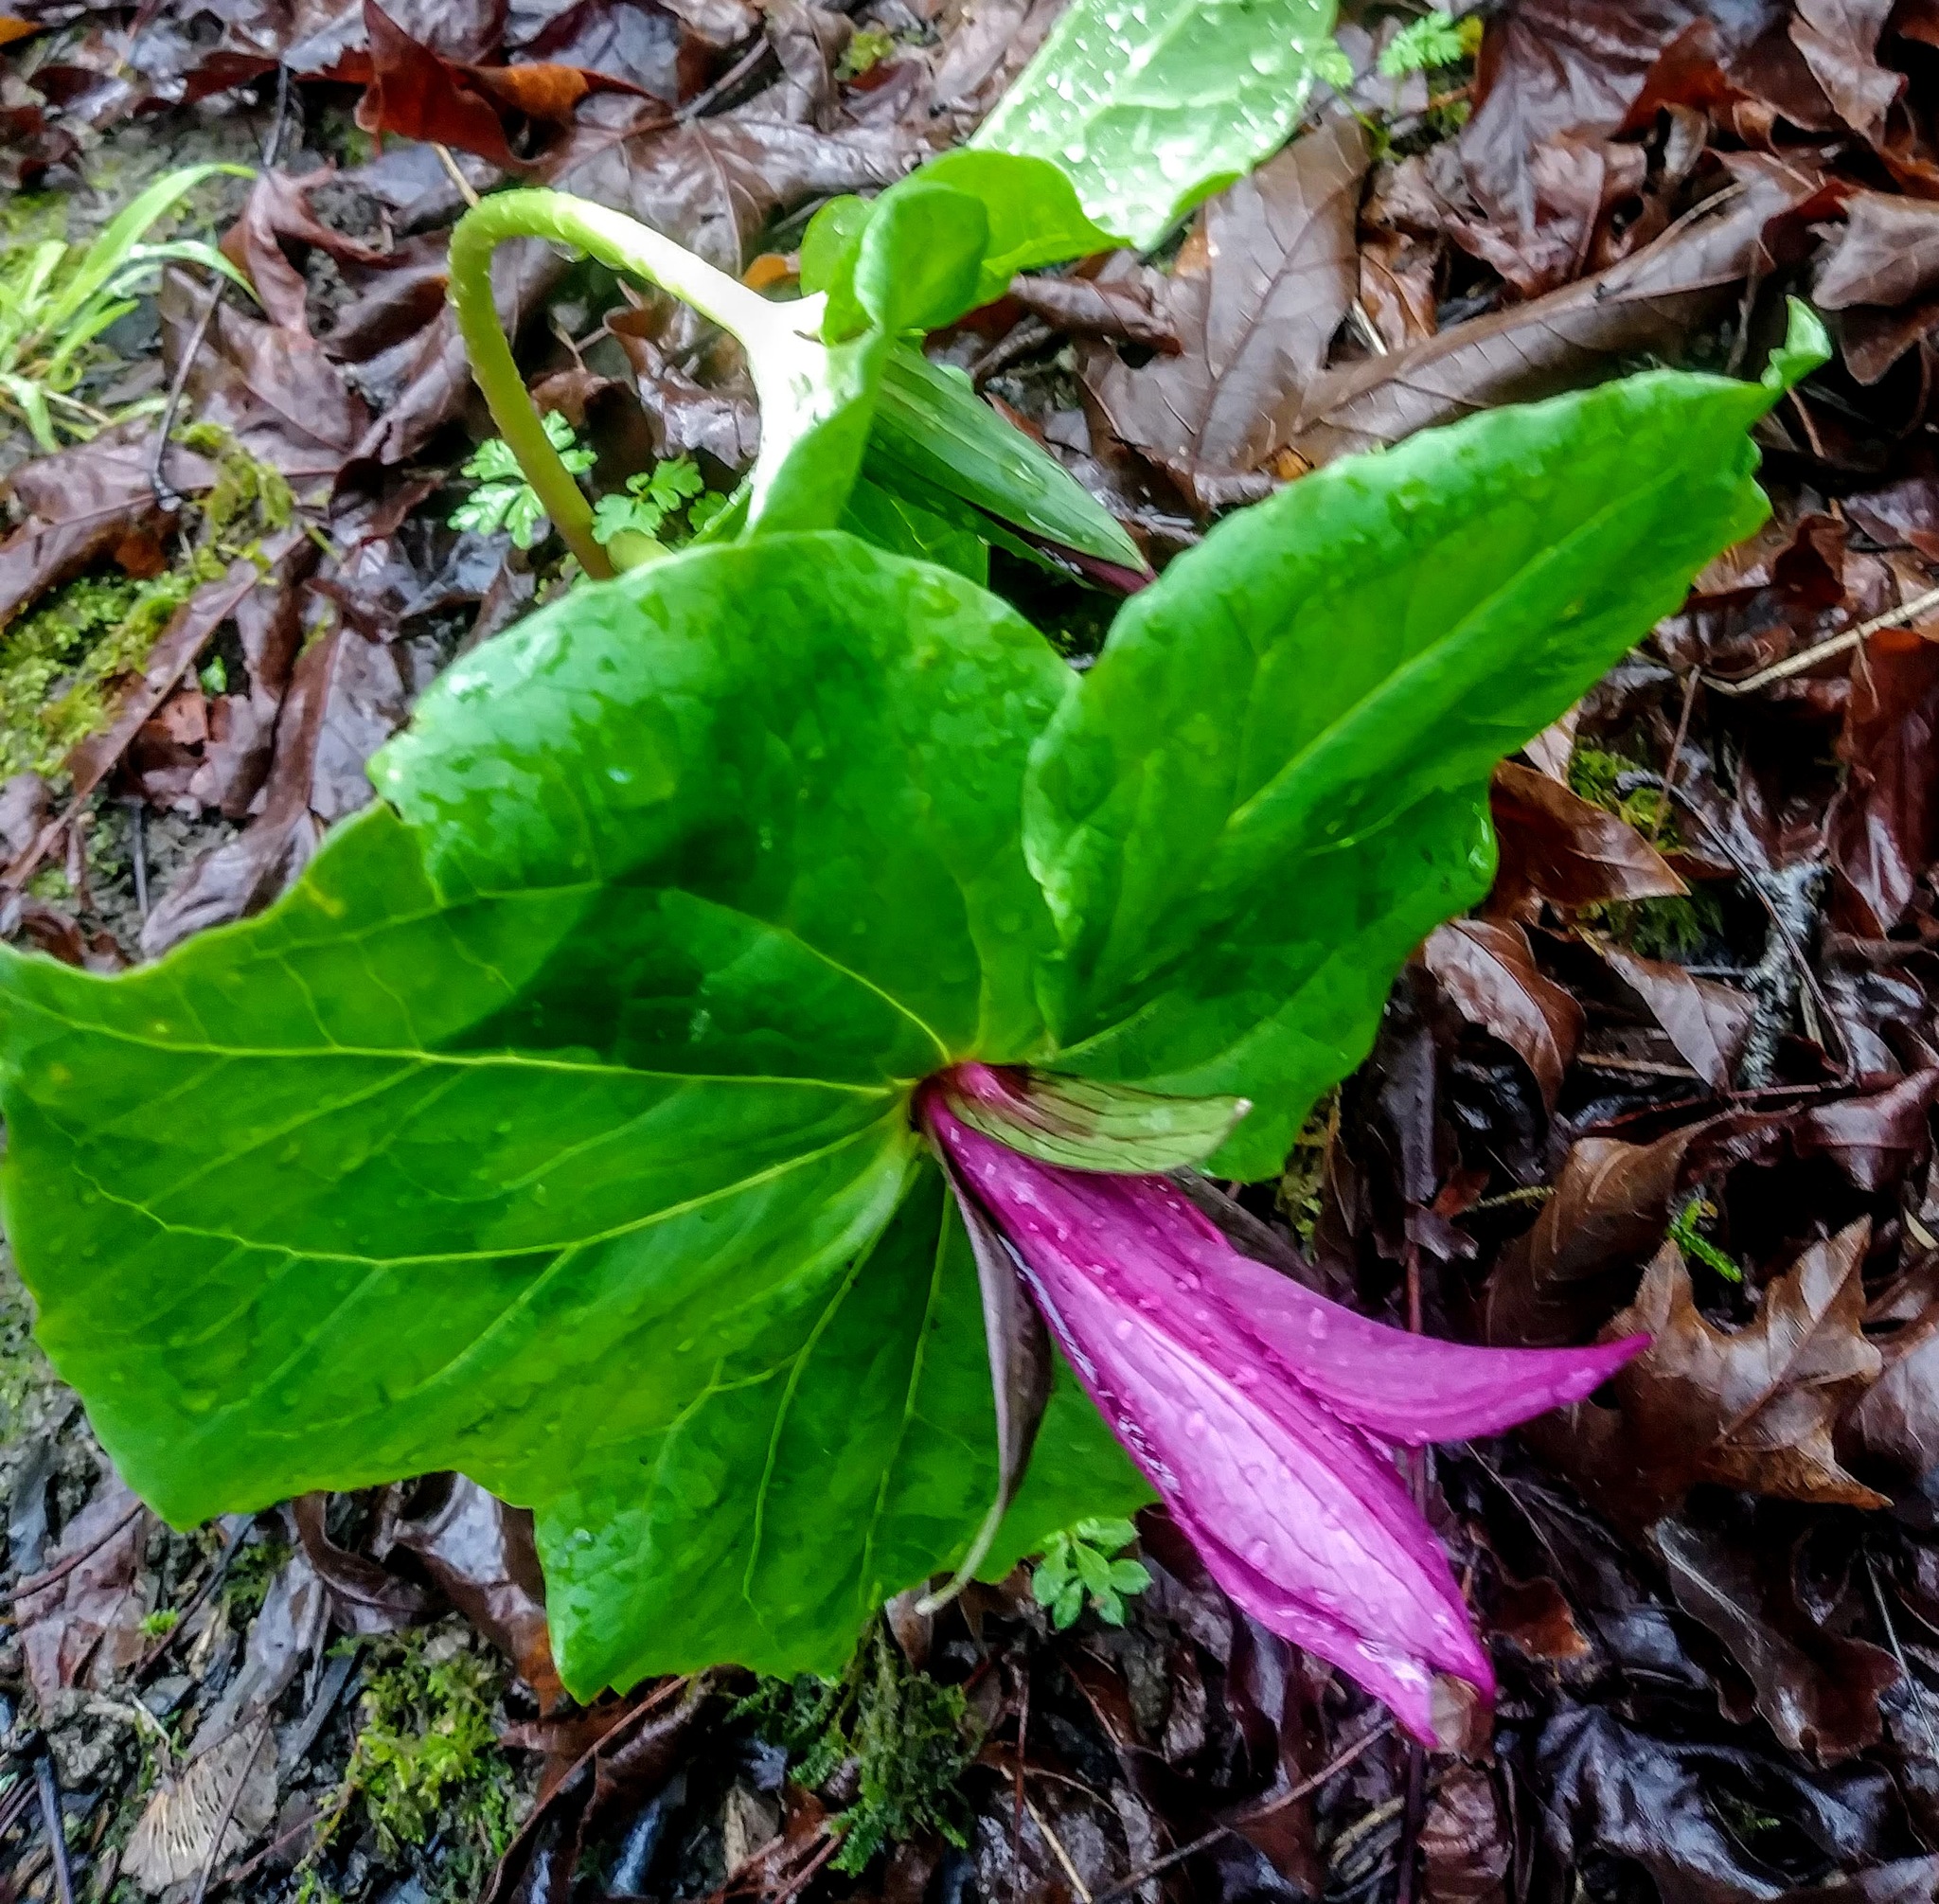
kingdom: Plantae
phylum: Tracheophyta
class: Liliopsida
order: Liliales
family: Melanthiaceae
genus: Trillium
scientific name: Trillium chloropetalum
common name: Giant trillium
